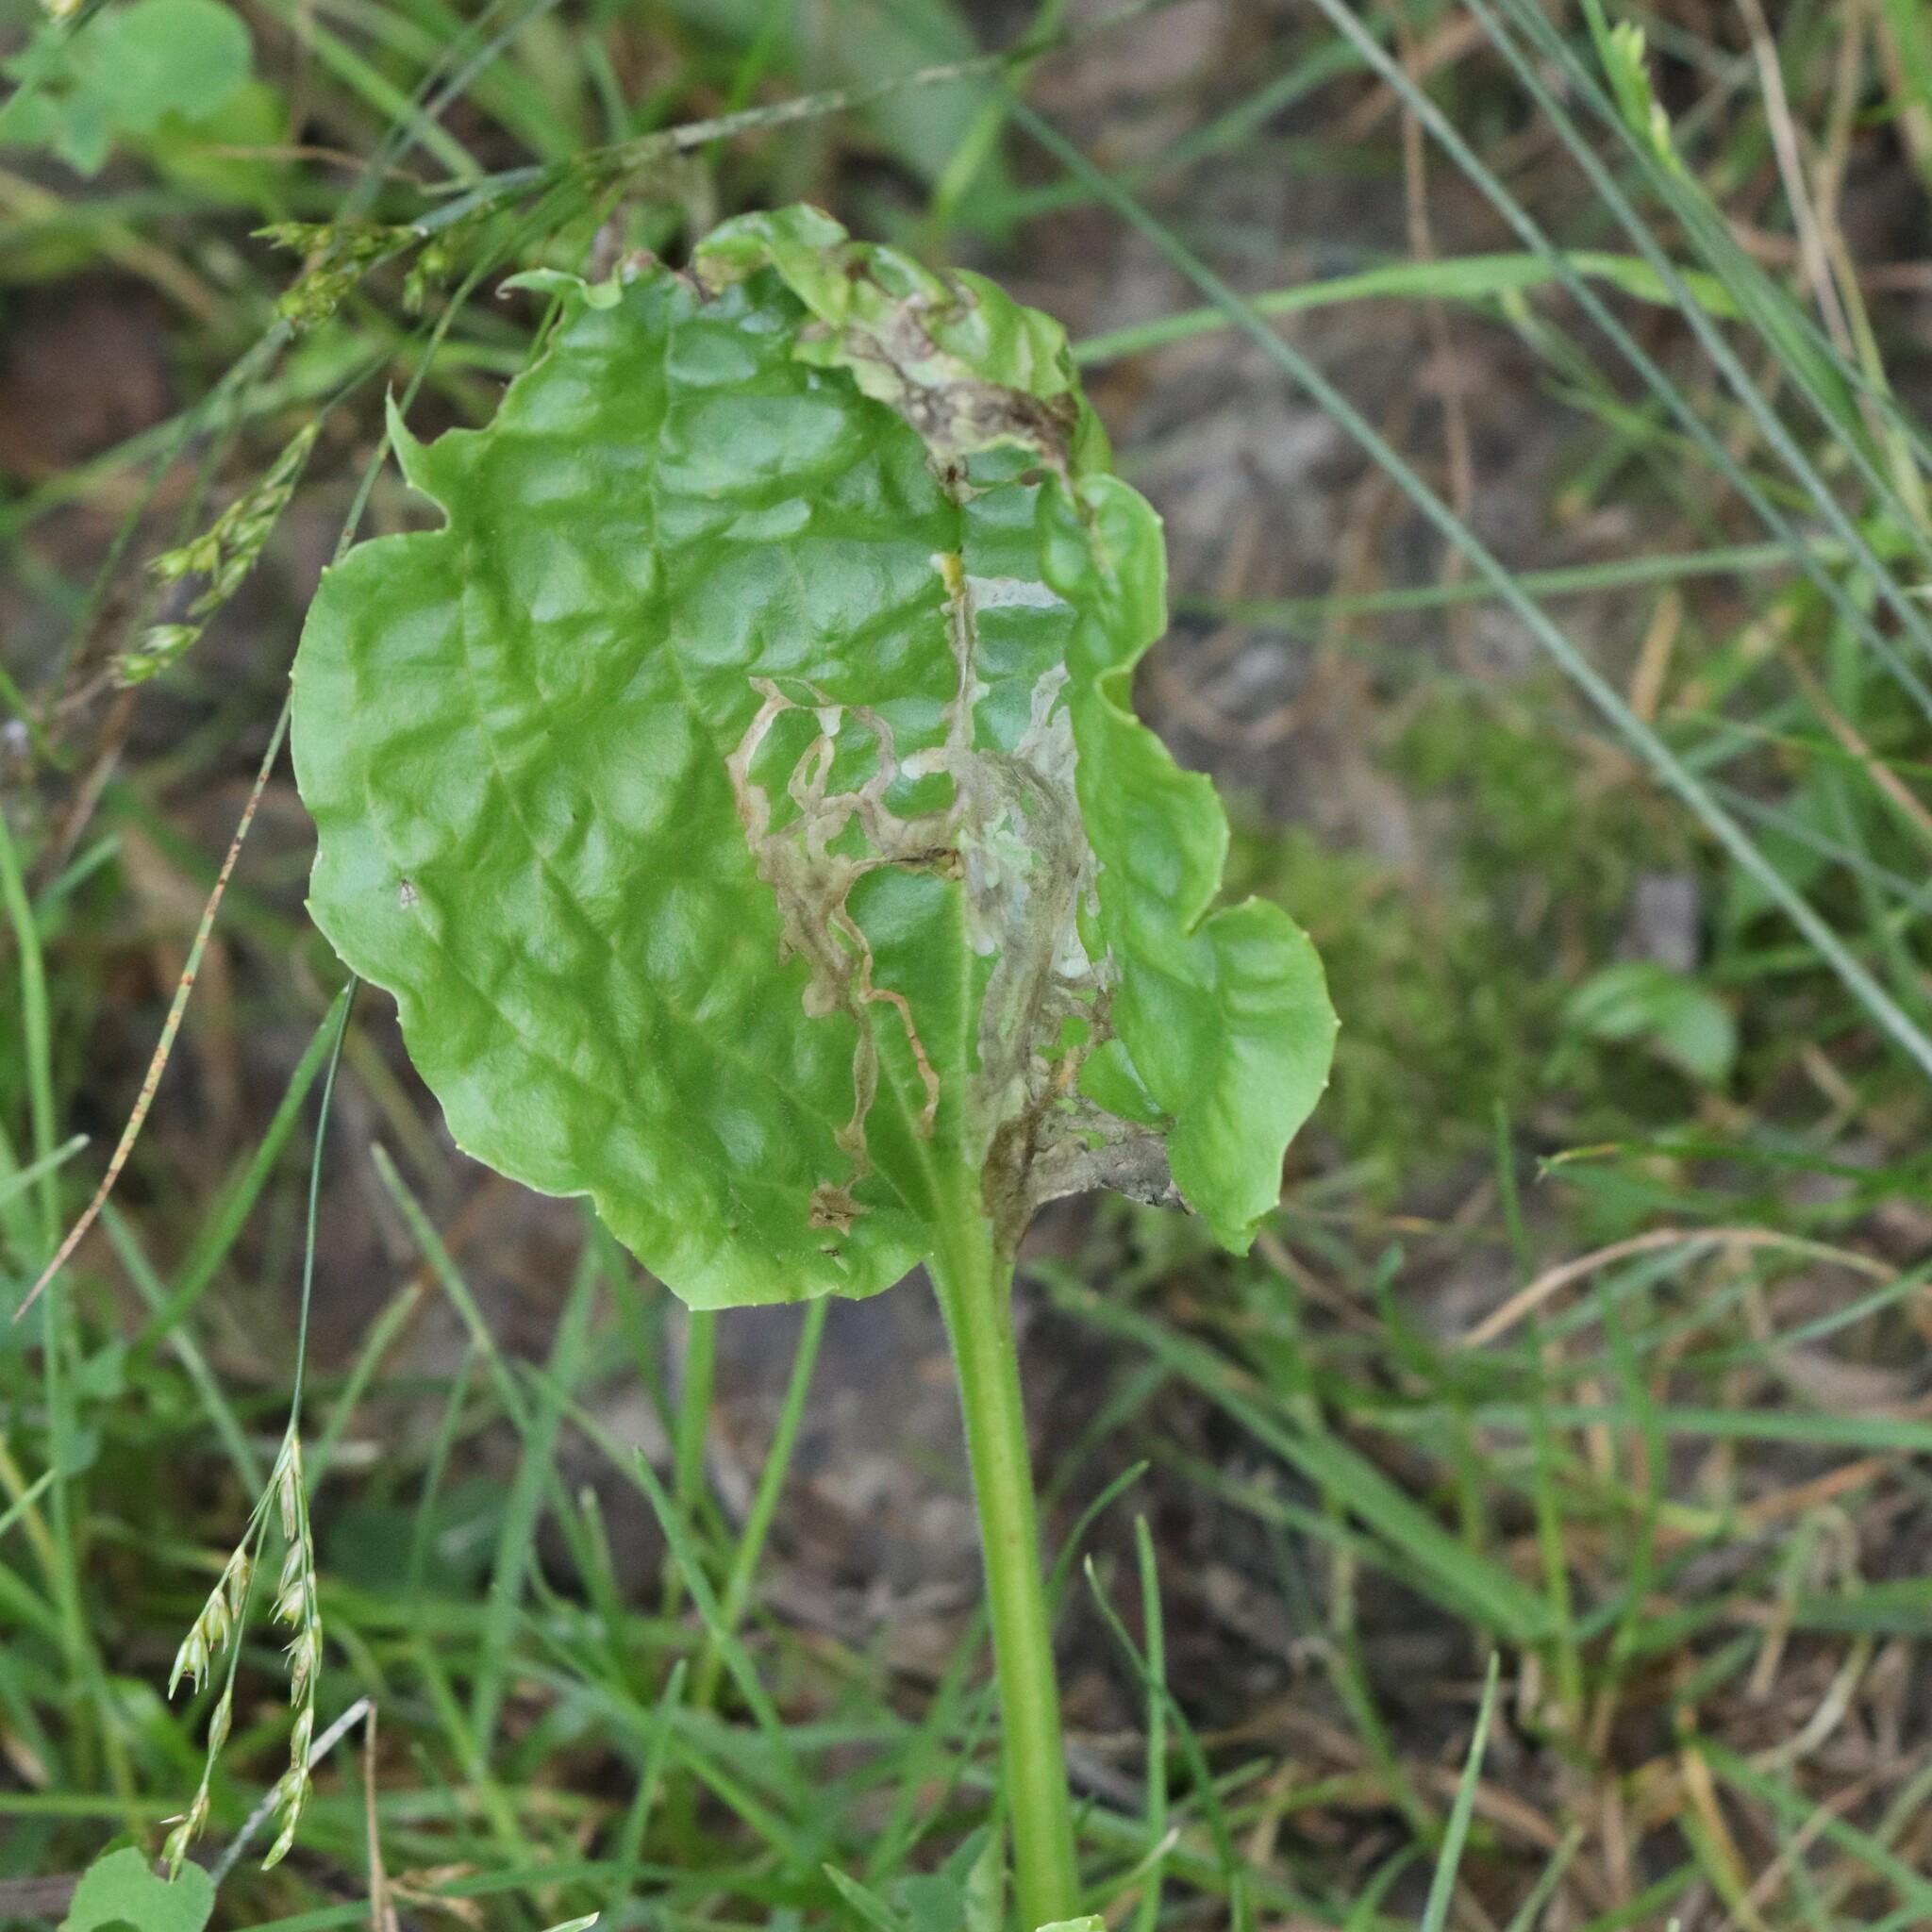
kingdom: Animalia
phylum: Arthropoda
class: Insecta
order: Coleoptera
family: Chrysomelidae
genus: Dibolia
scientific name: Dibolia borealis
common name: Northern plantain flea beetle
